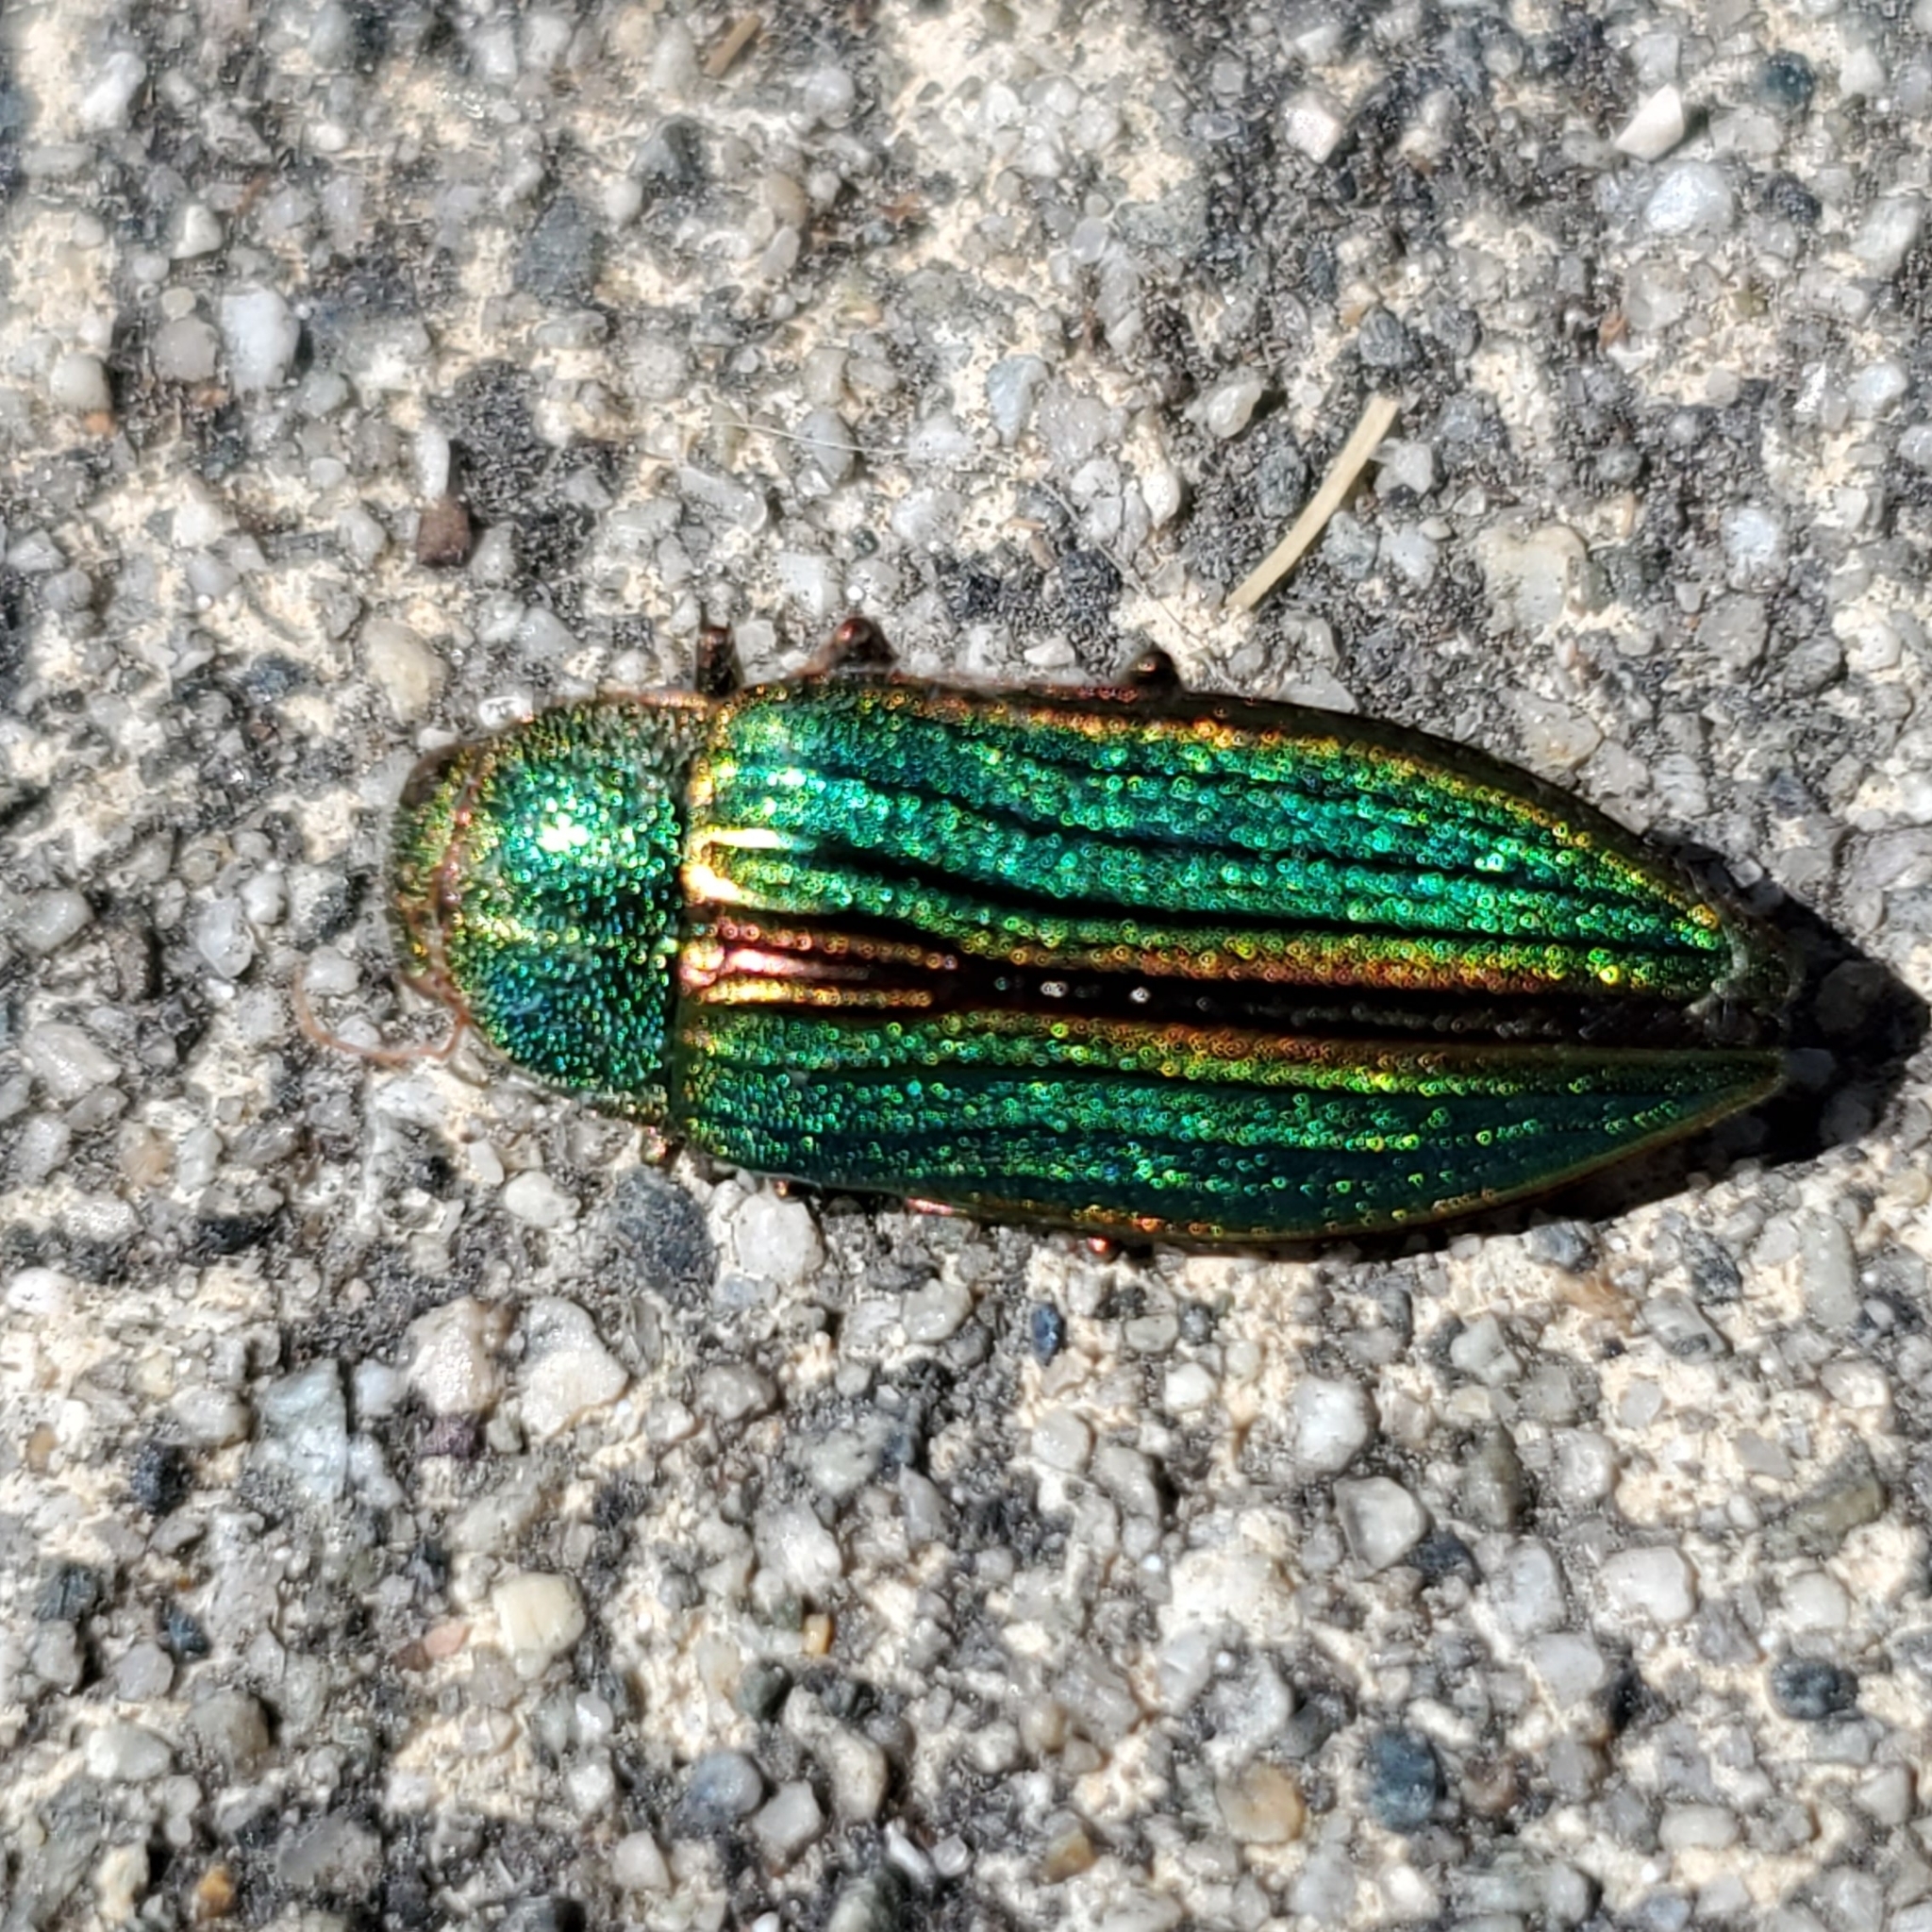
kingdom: Animalia
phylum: Arthropoda
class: Insecta
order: Coleoptera
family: Buprestidae
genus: Buprestis
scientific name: Buprestis aurulenta
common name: Golden buprestid
